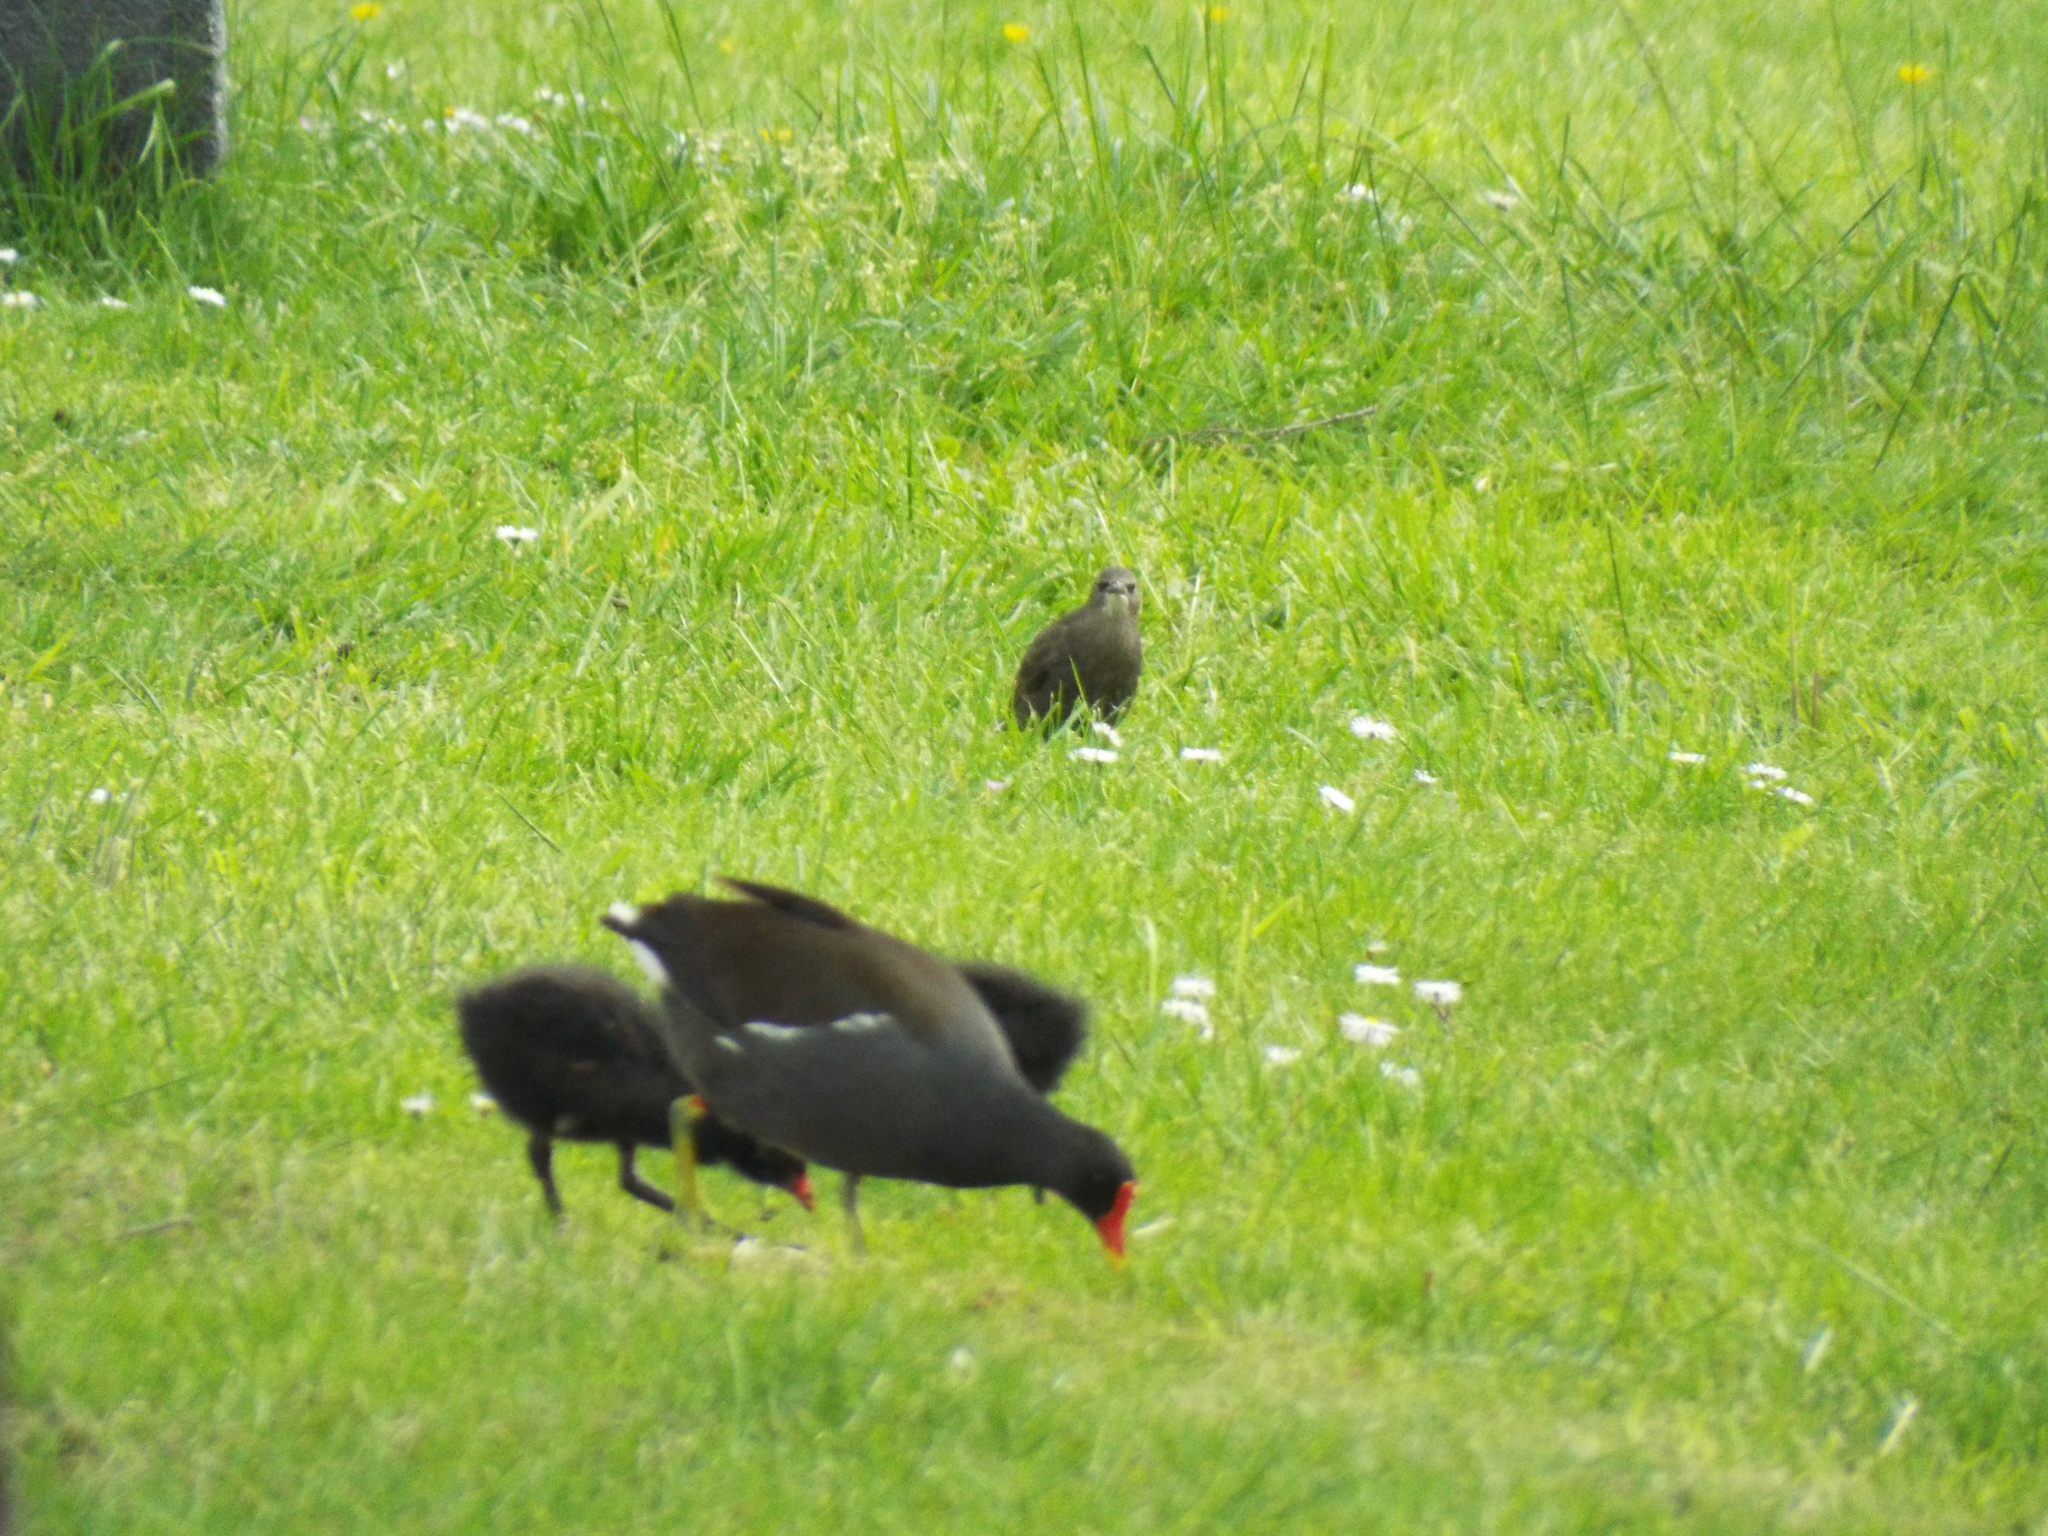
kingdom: Animalia
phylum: Chordata
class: Aves
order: Gruiformes
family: Rallidae
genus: Gallinula
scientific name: Gallinula chloropus
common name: Common moorhen
